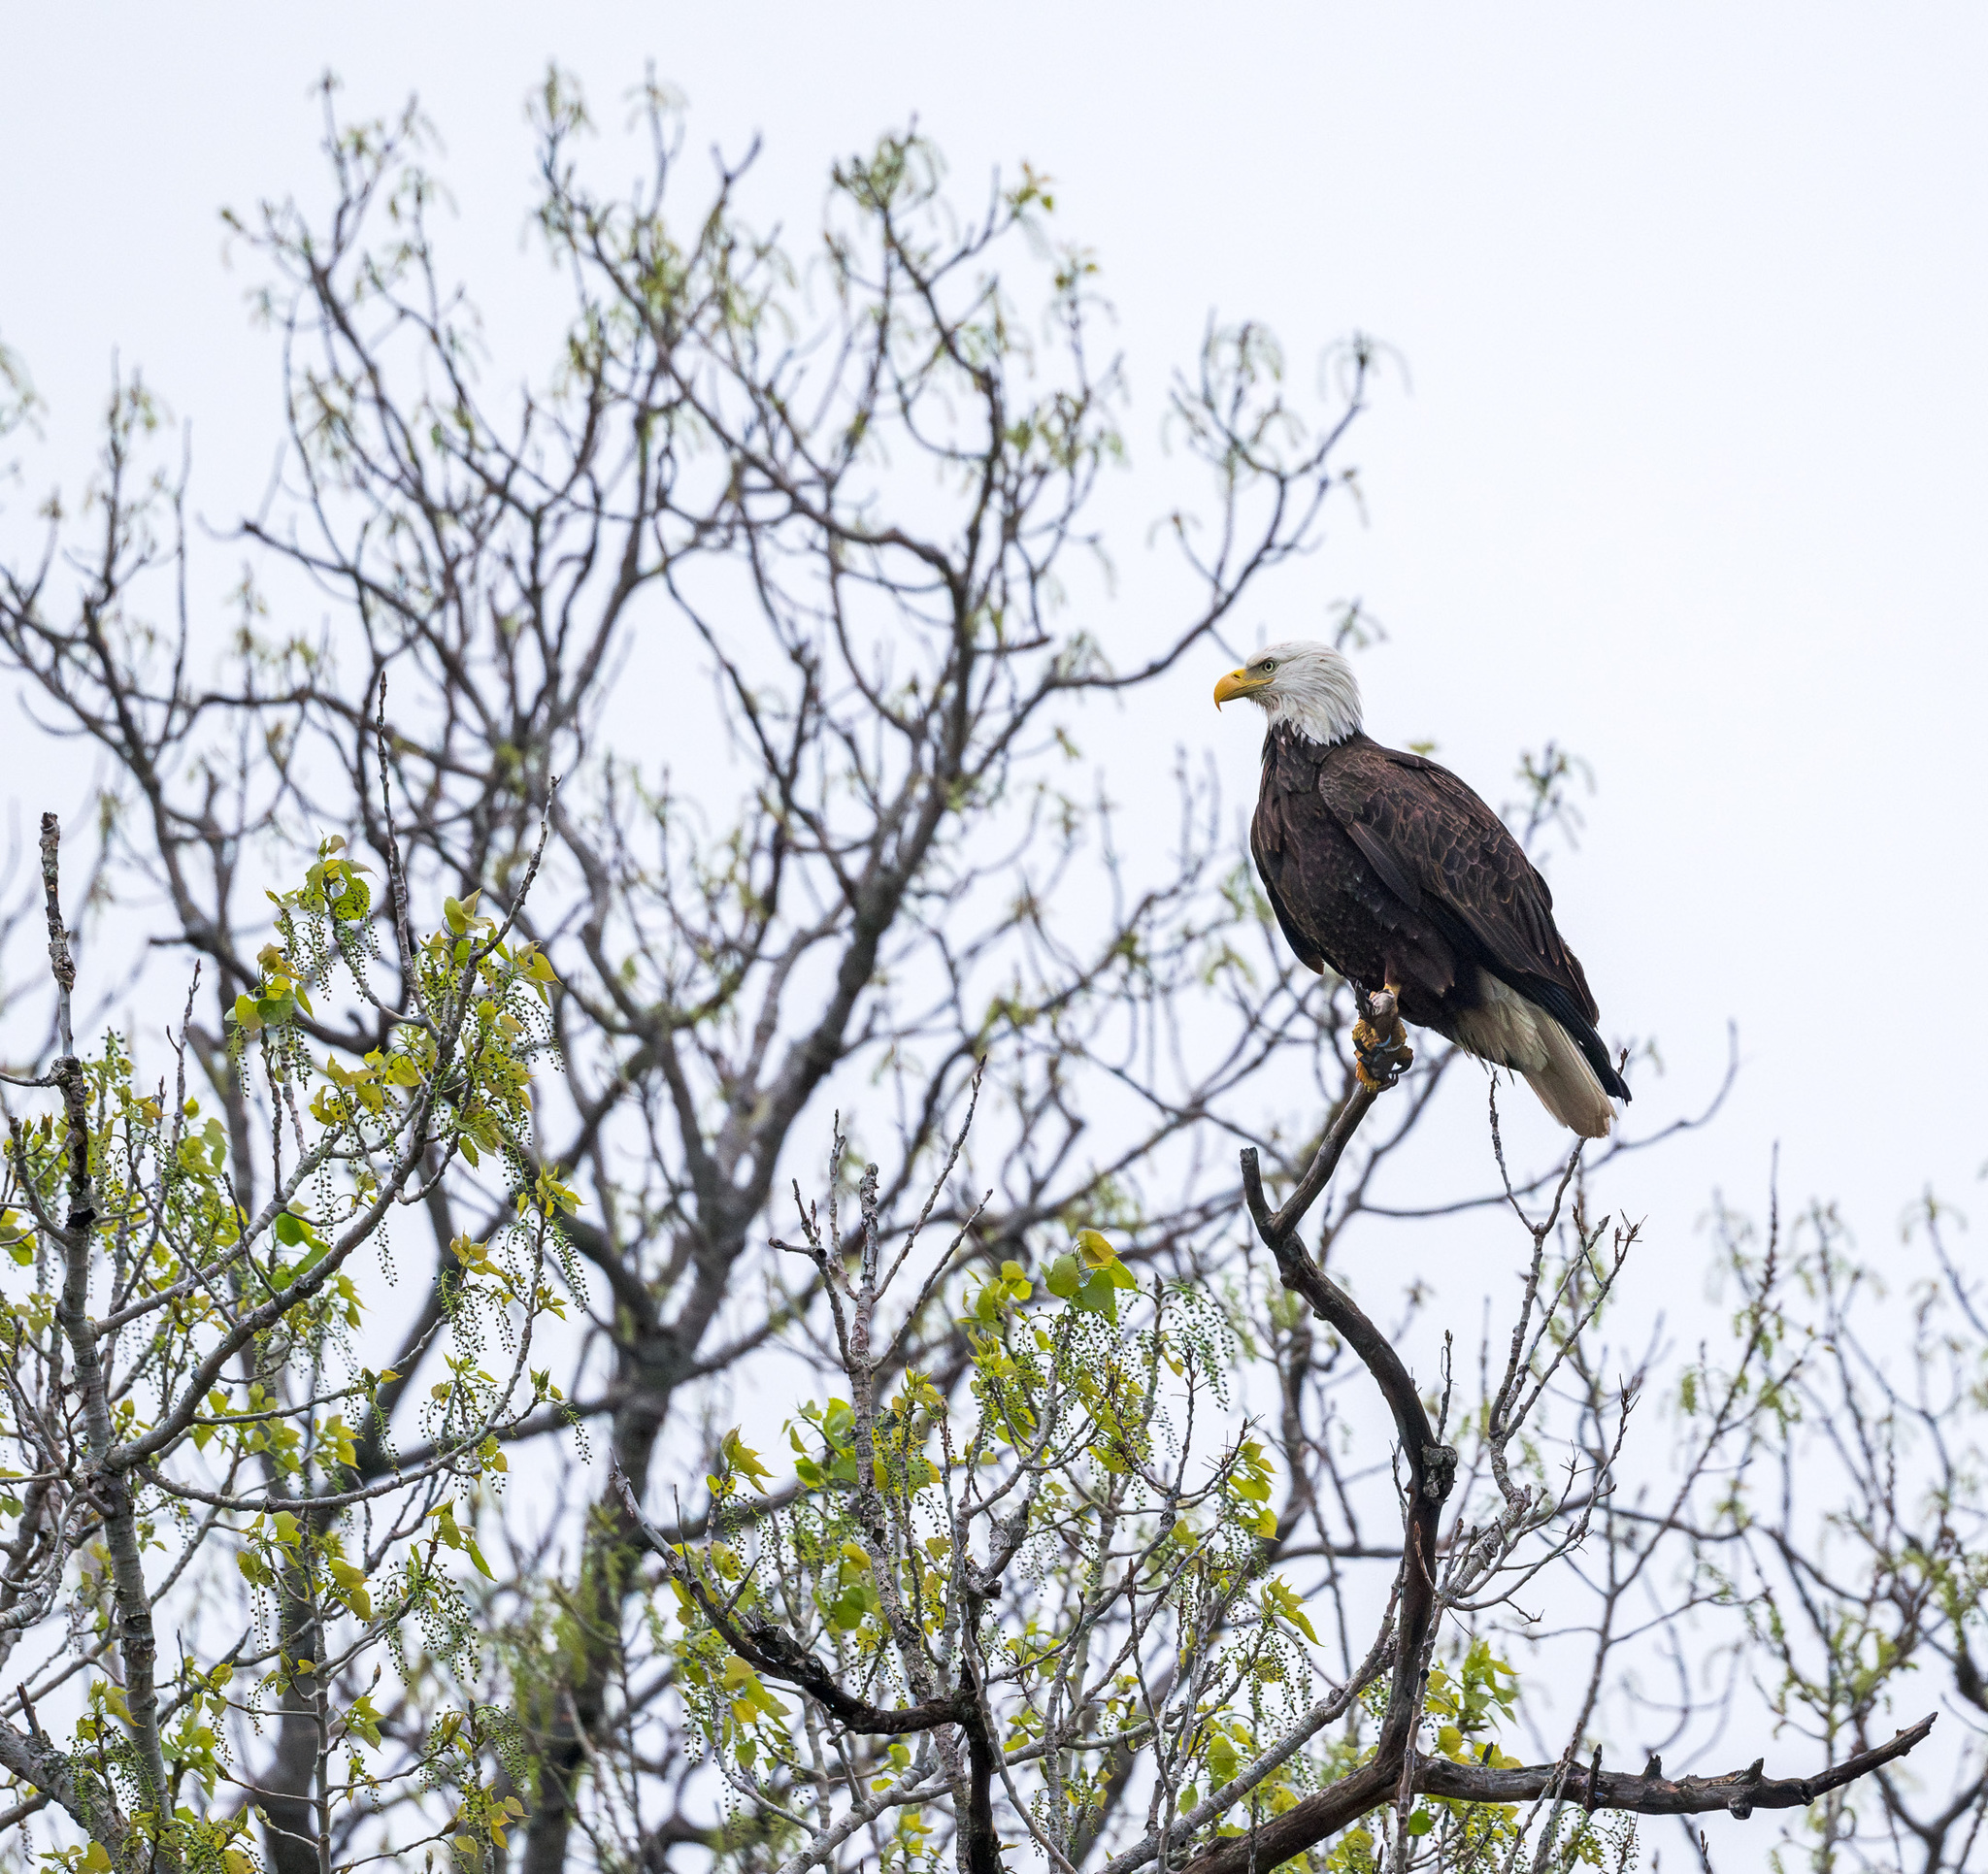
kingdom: Animalia
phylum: Chordata
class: Aves
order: Accipitriformes
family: Accipitridae
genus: Haliaeetus
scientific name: Haliaeetus leucocephalus
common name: Bald eagle
